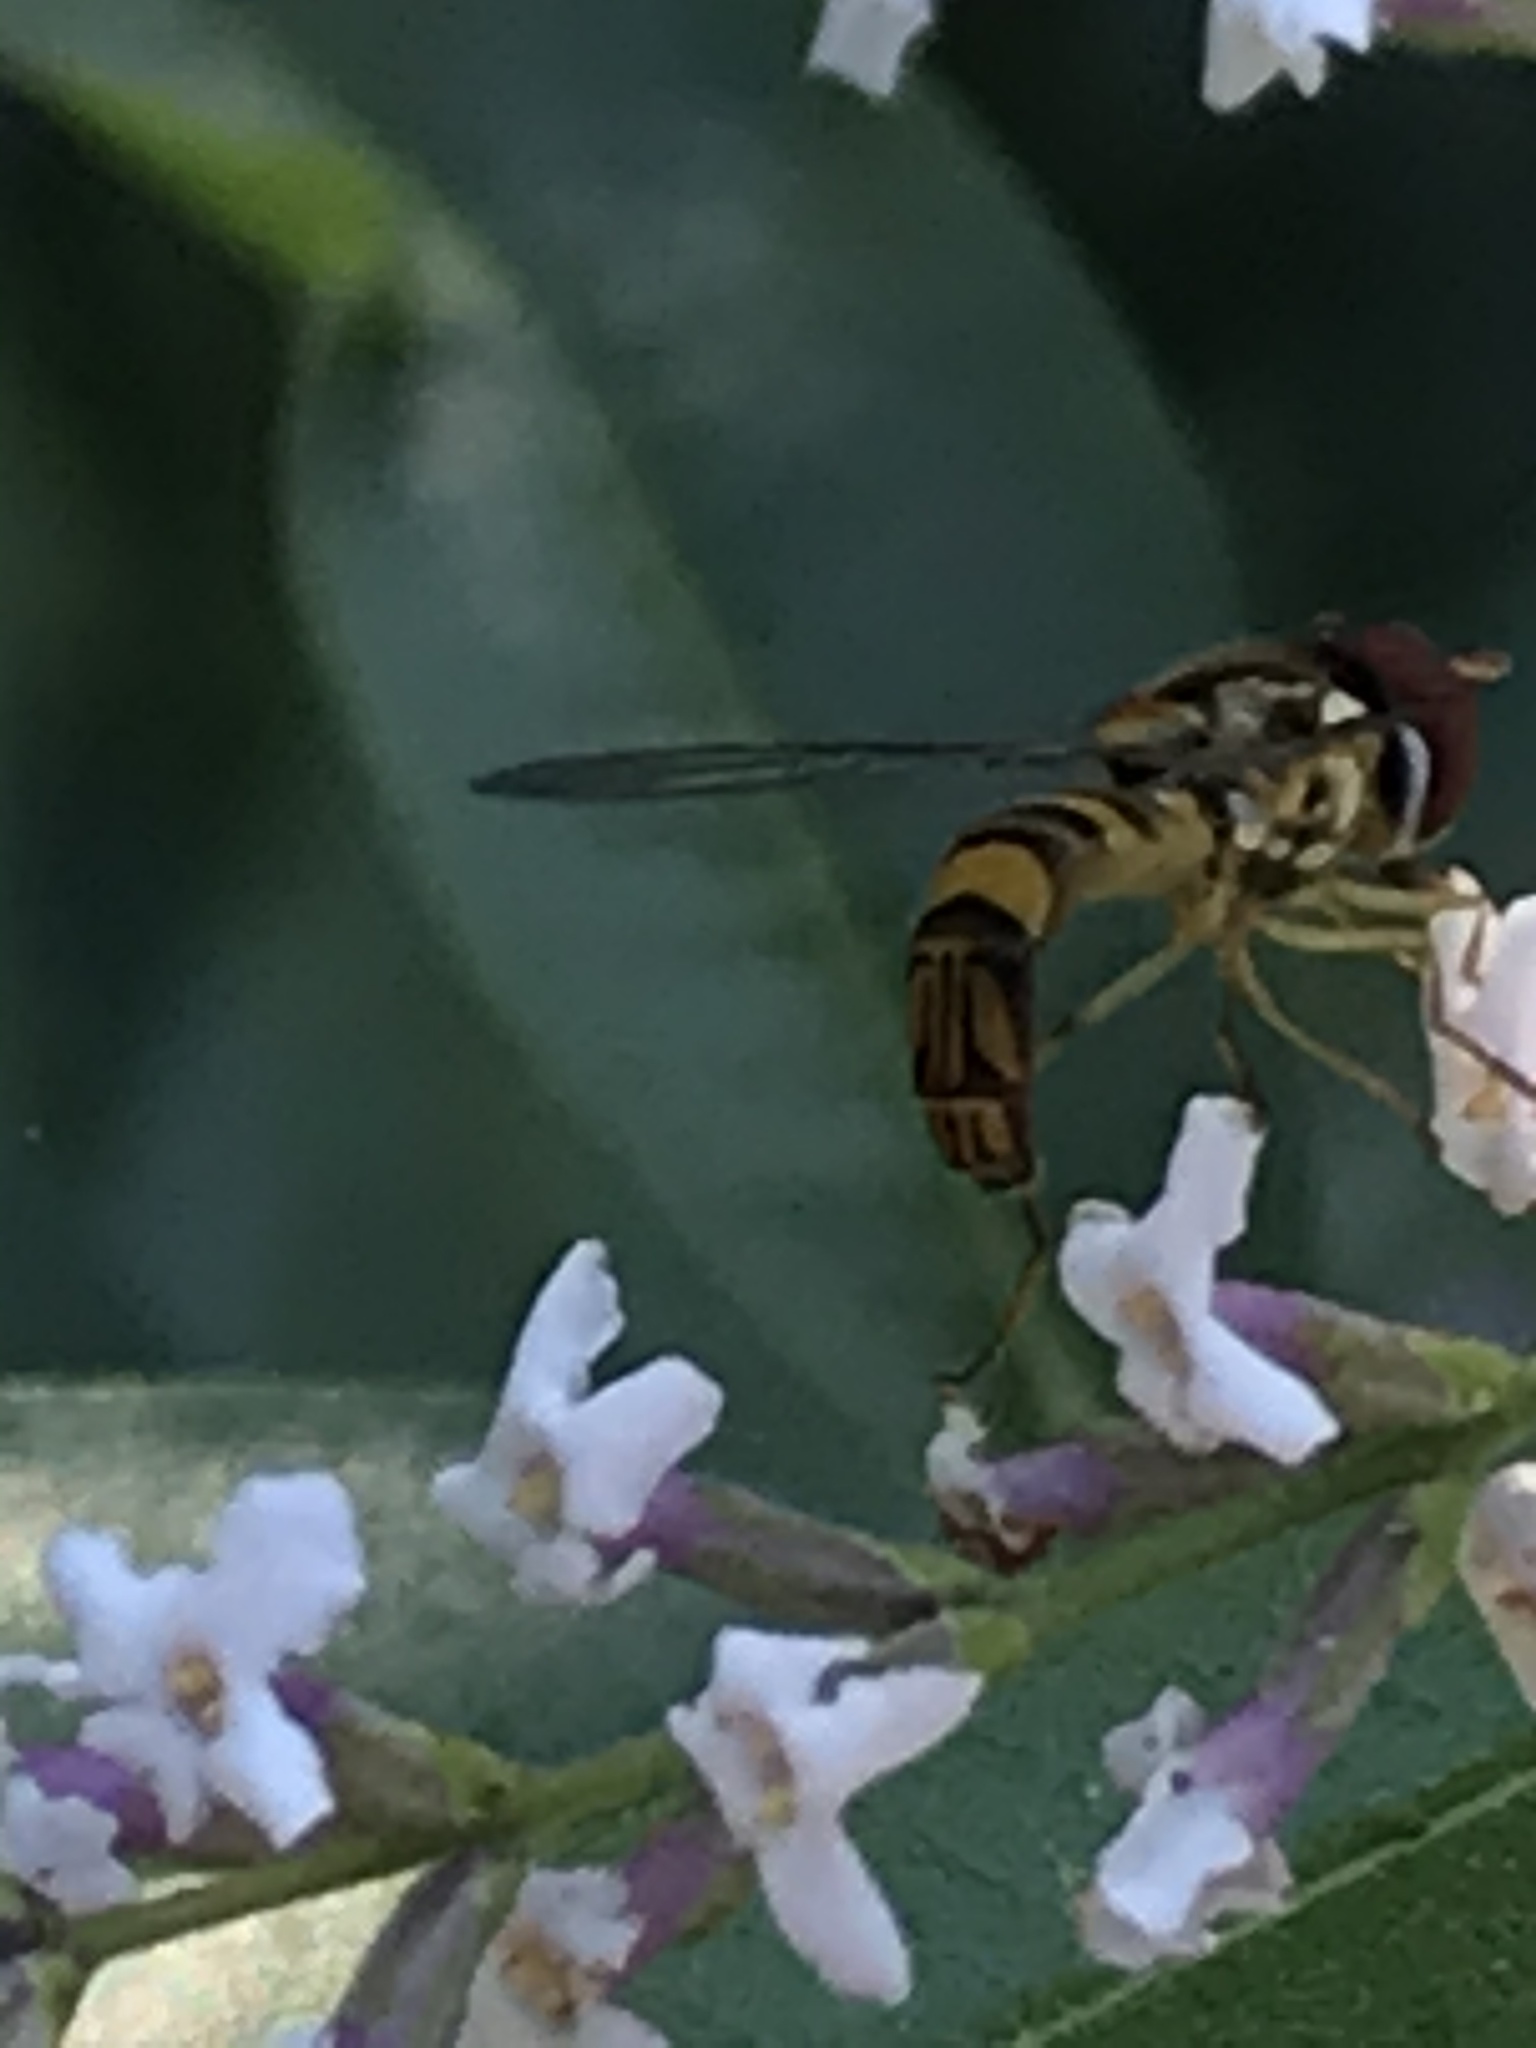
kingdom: Animalia
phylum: Arthropoda
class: Insecta
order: Diptera
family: Syrphidae
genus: Allograpta
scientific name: Allograpta obliqua
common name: Common oblique syrphid
